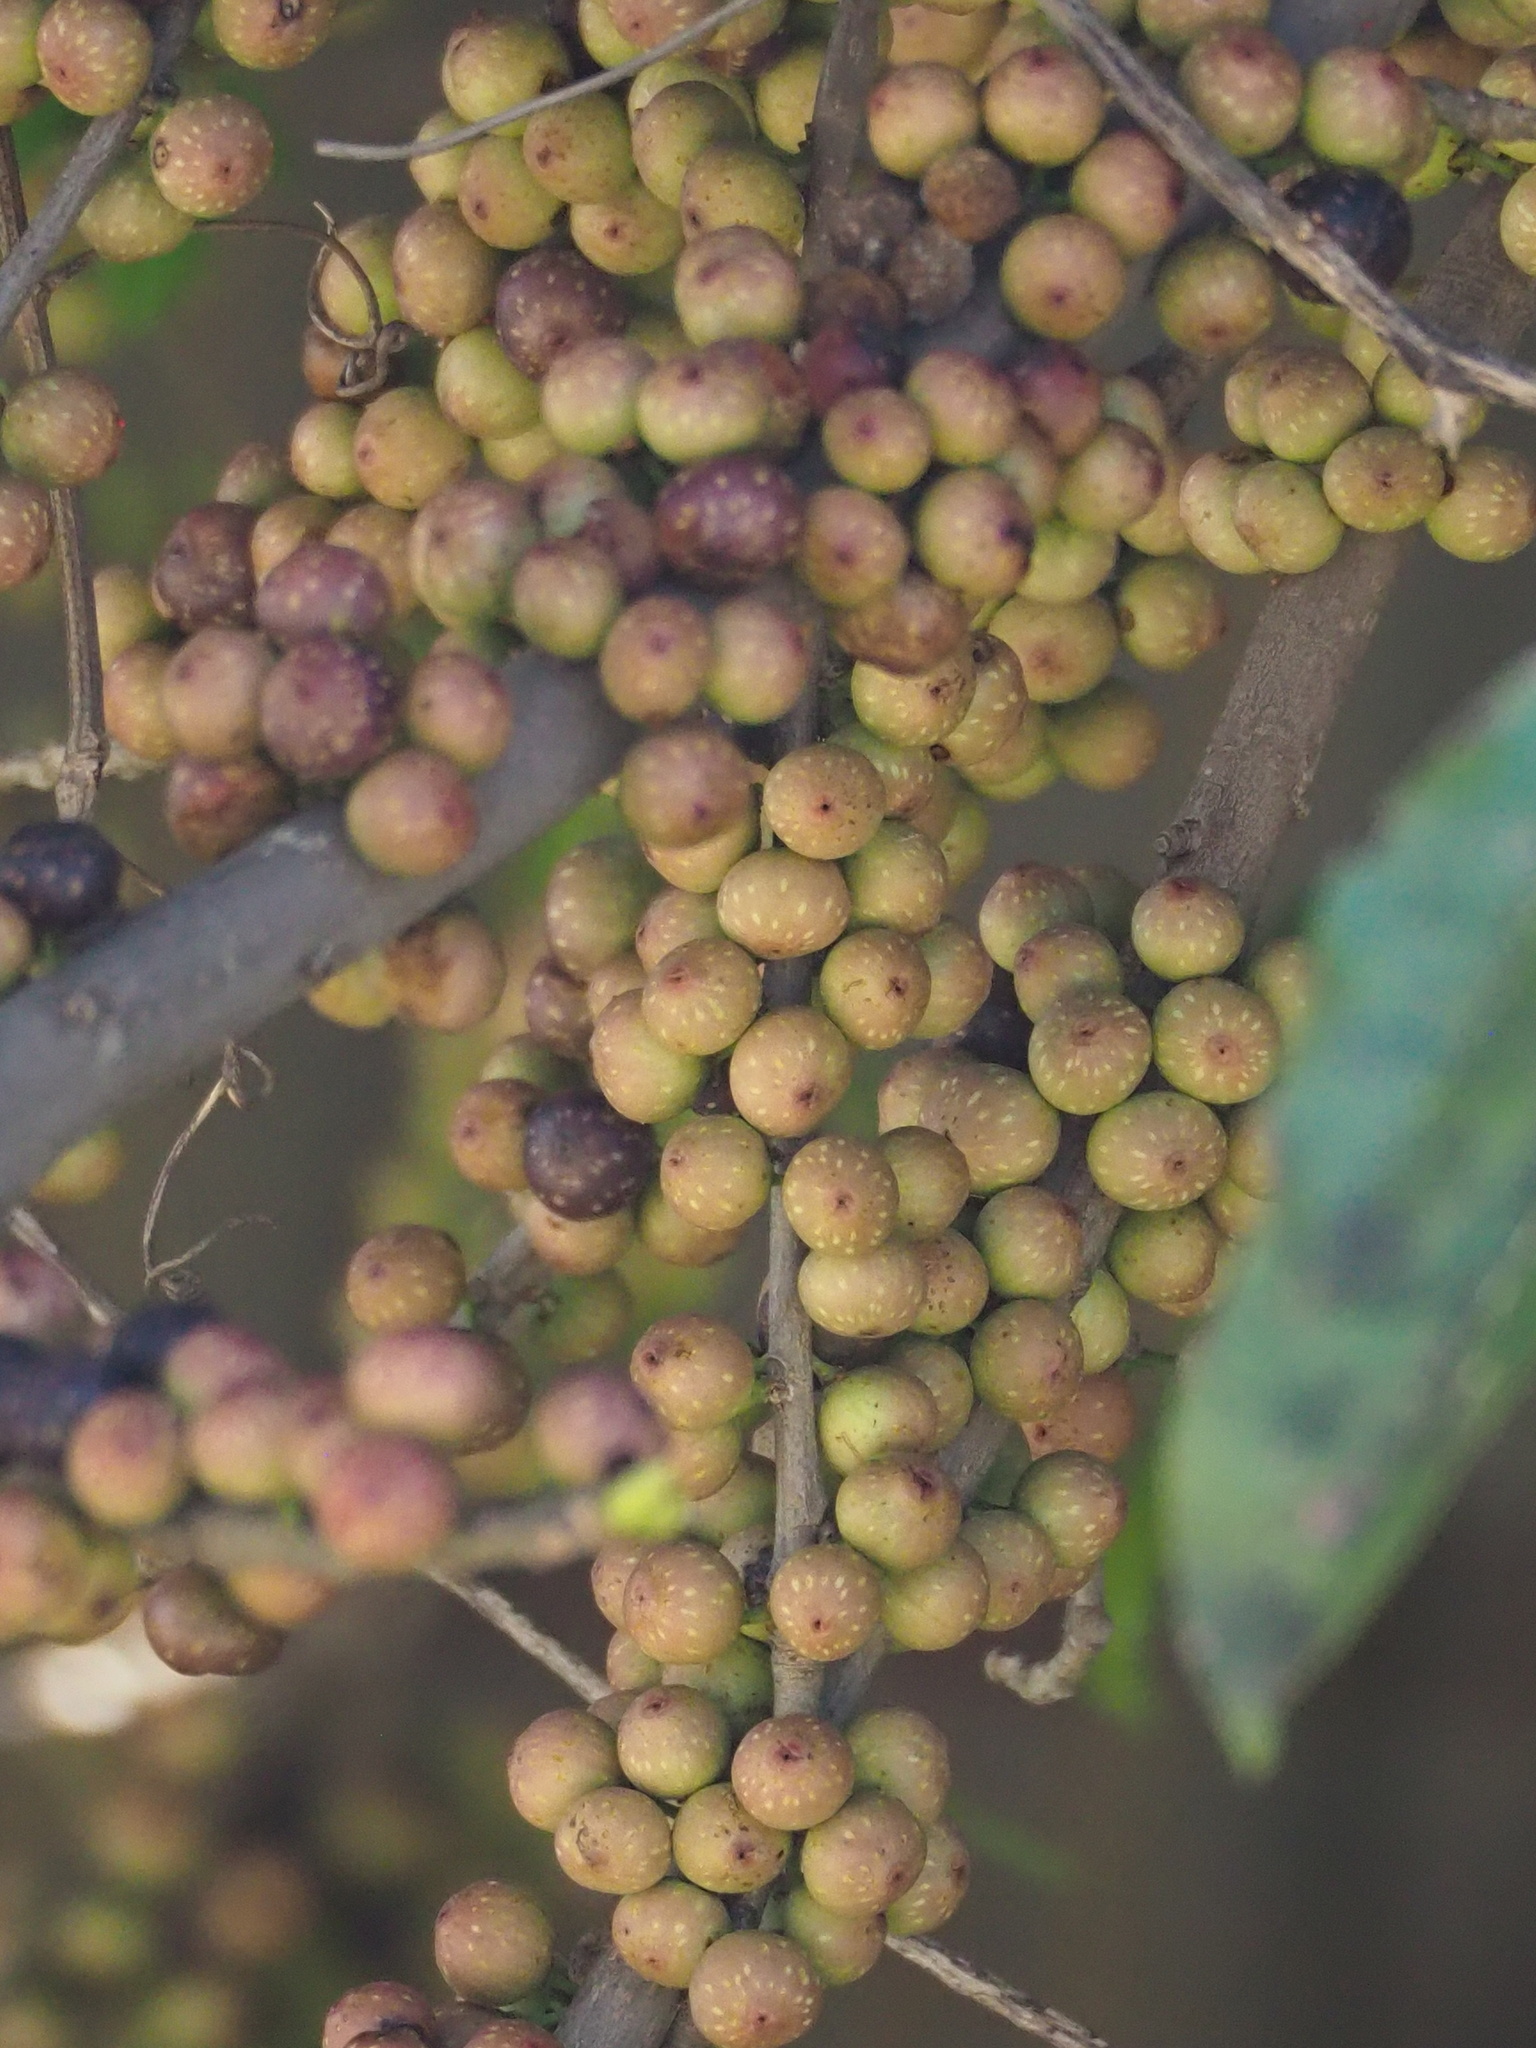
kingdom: Plantae
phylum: Tracheophyta
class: Magnoliopsida
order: Rosales
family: Moraceae
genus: Ficus
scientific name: Ficus subpisocarpa
